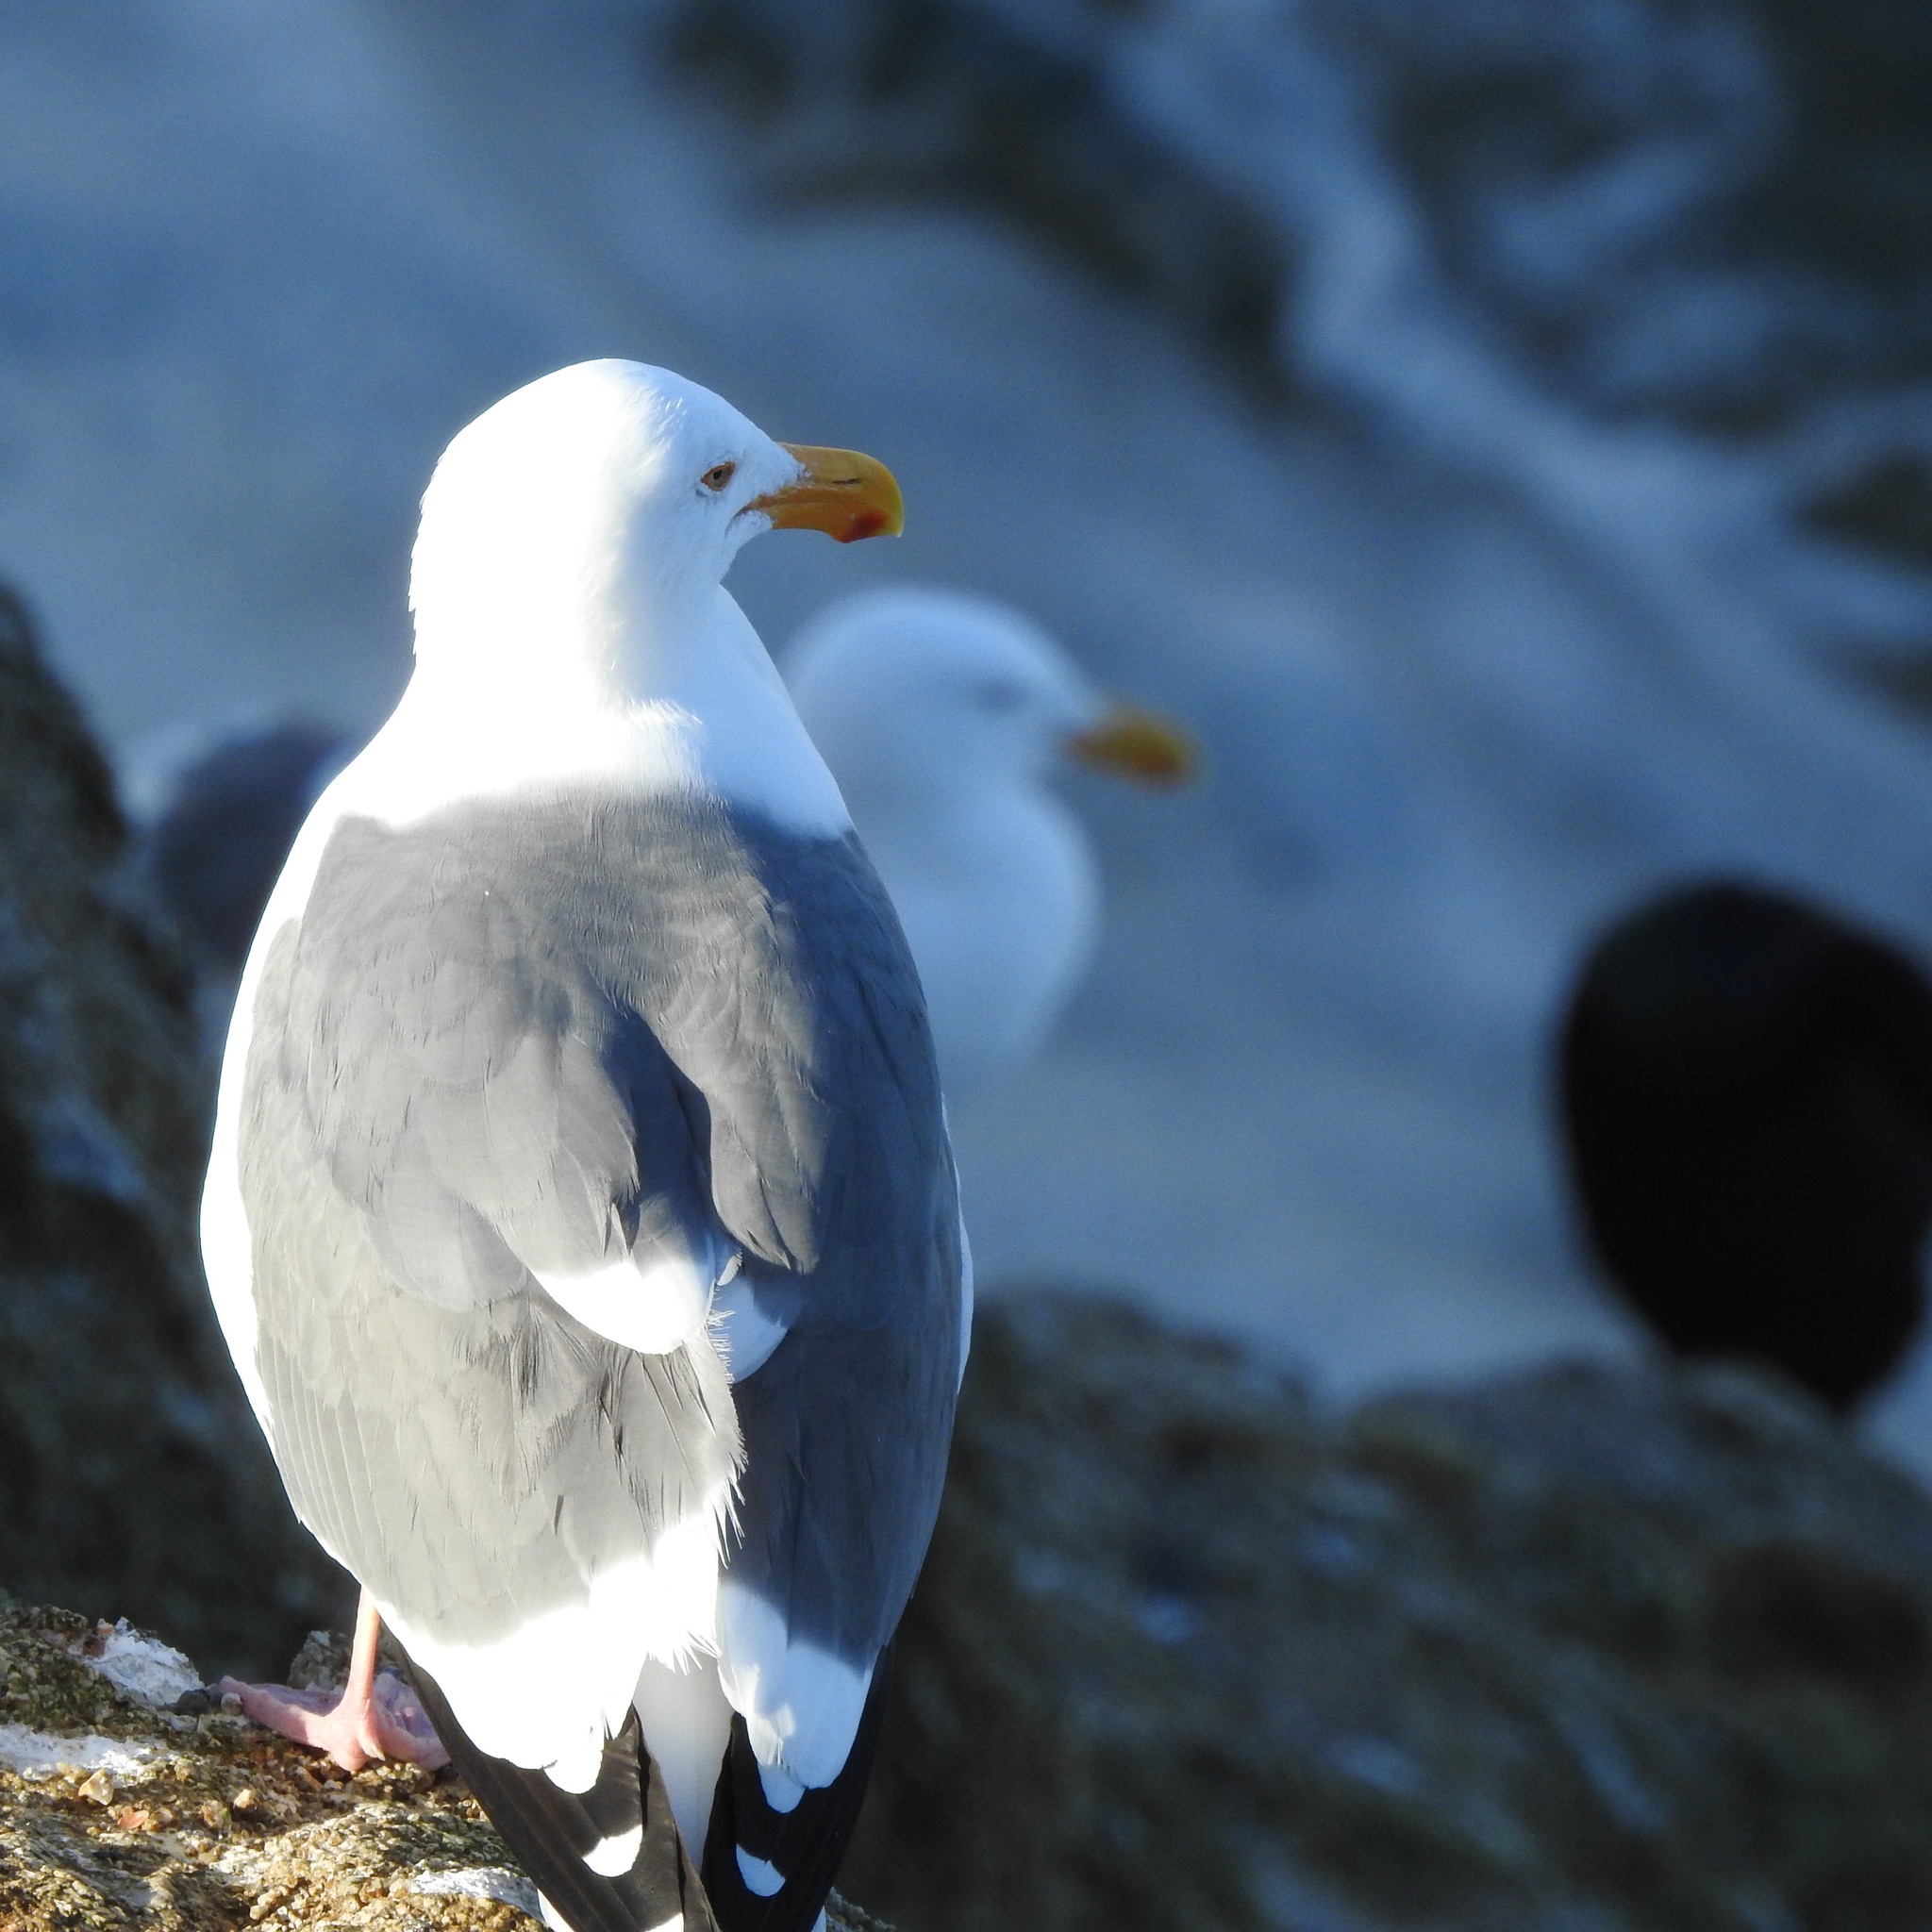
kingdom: Animalia
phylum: Chordata
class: Aves
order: Charadriiformes
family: Laridae
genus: Larus
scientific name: Larus occidentalis
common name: Western gull
